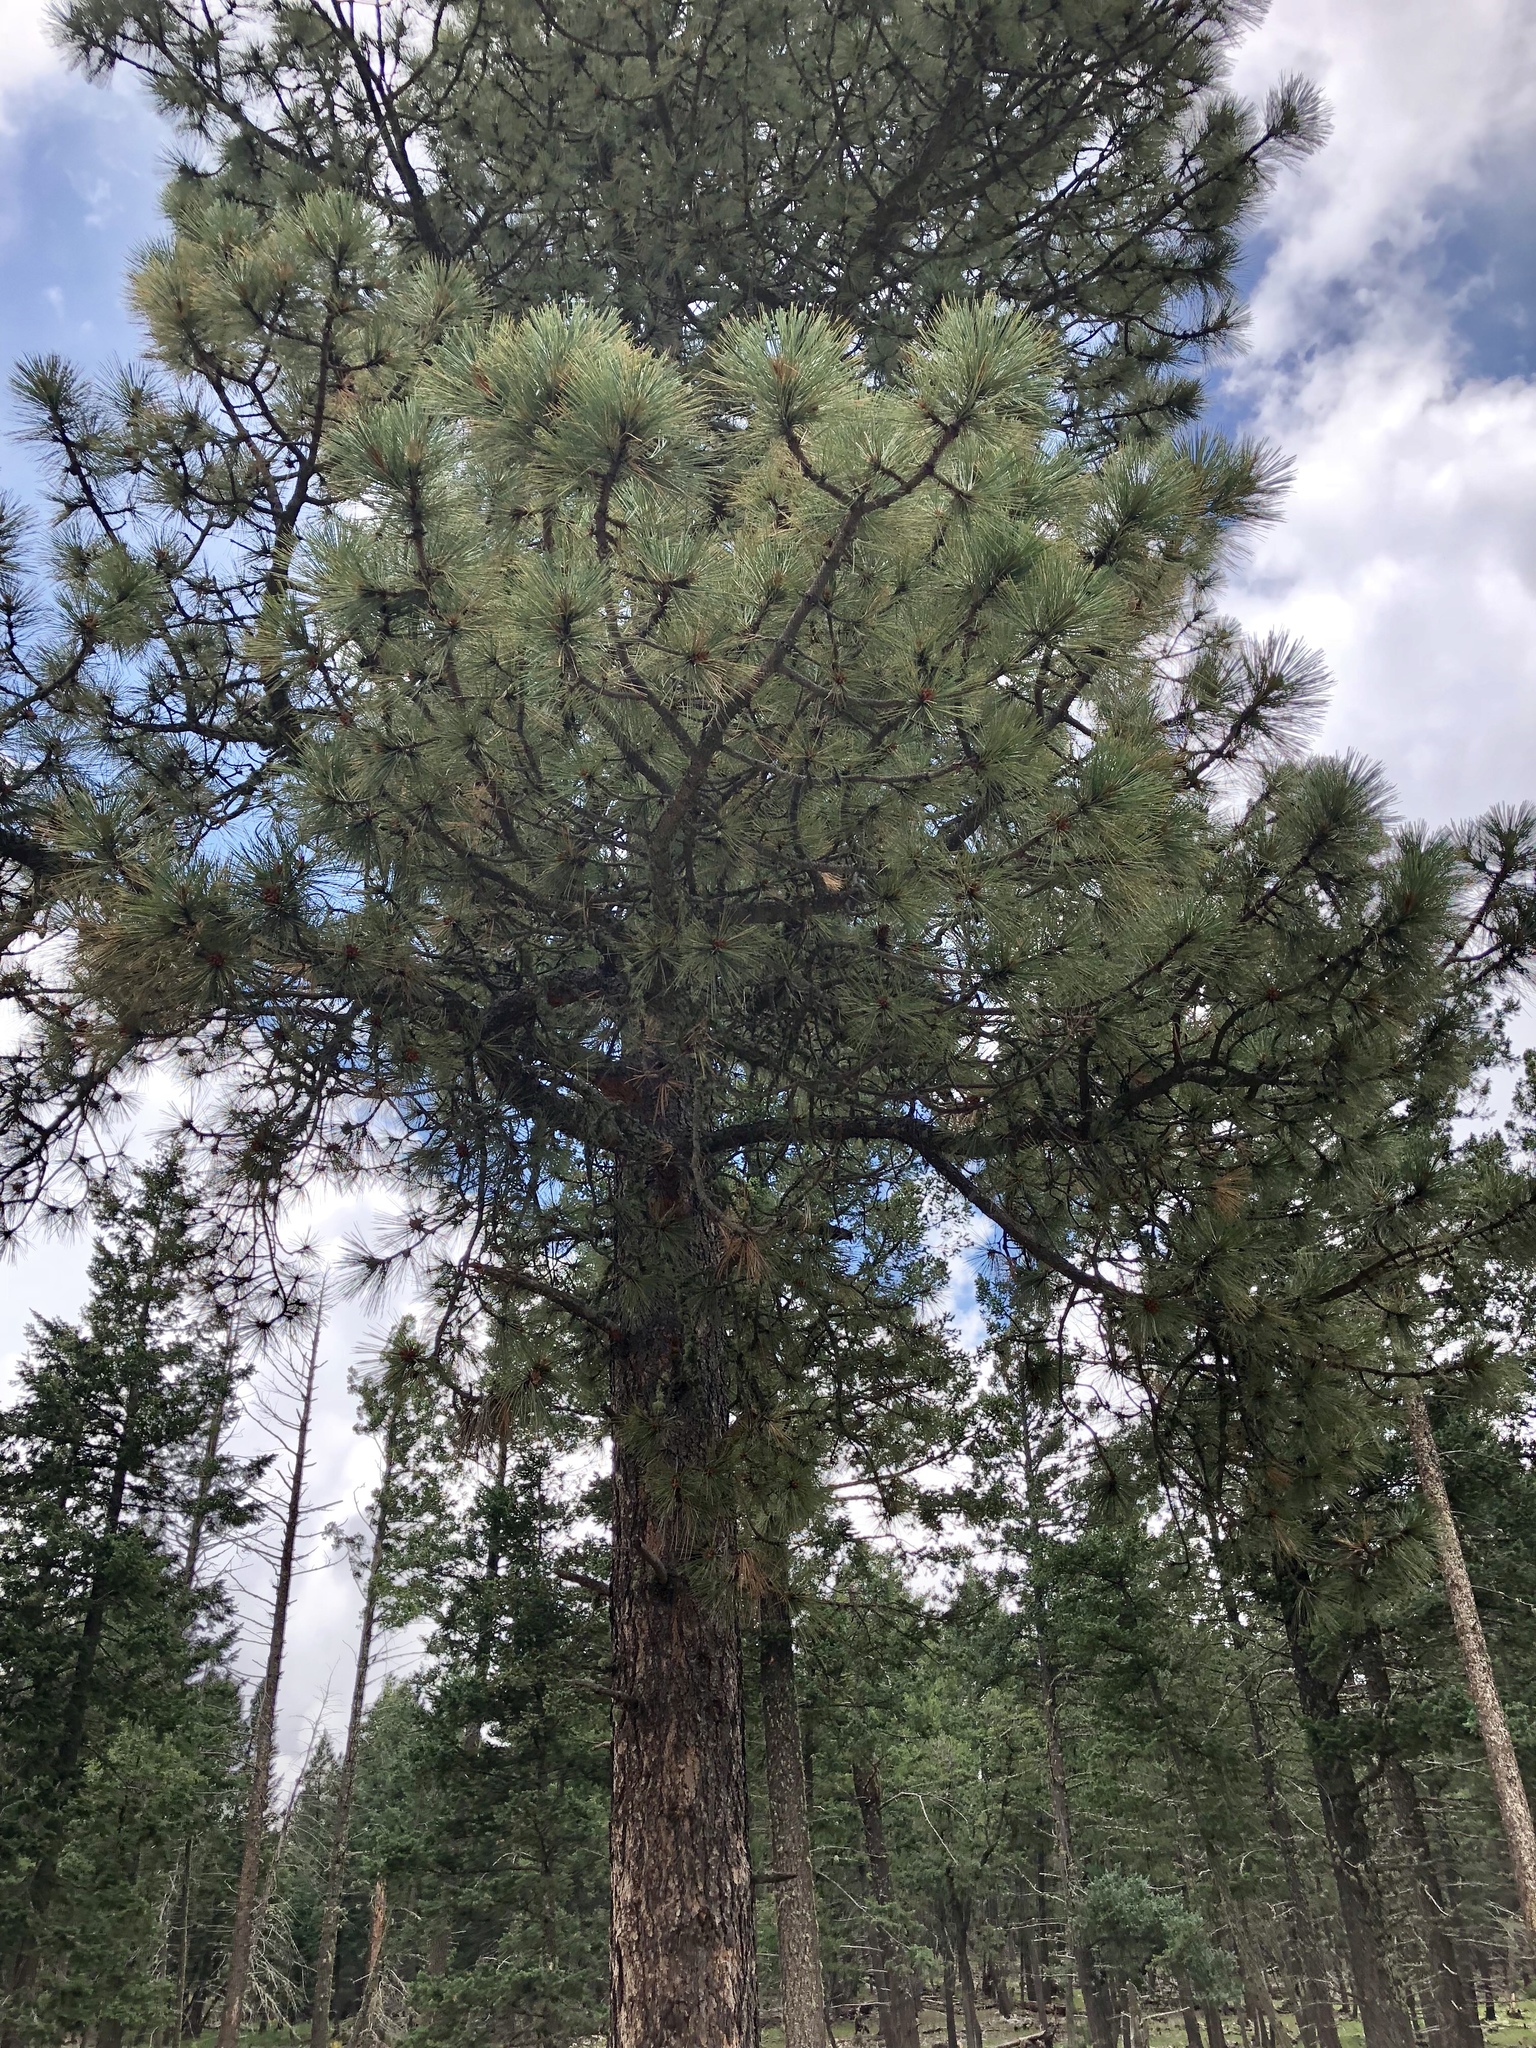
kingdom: Plantae
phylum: Tracheophyta
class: Pinopsida
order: Pinales
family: Pinaceae
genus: Pinus
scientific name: Pinus ponderosa
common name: Western yellow-pine
